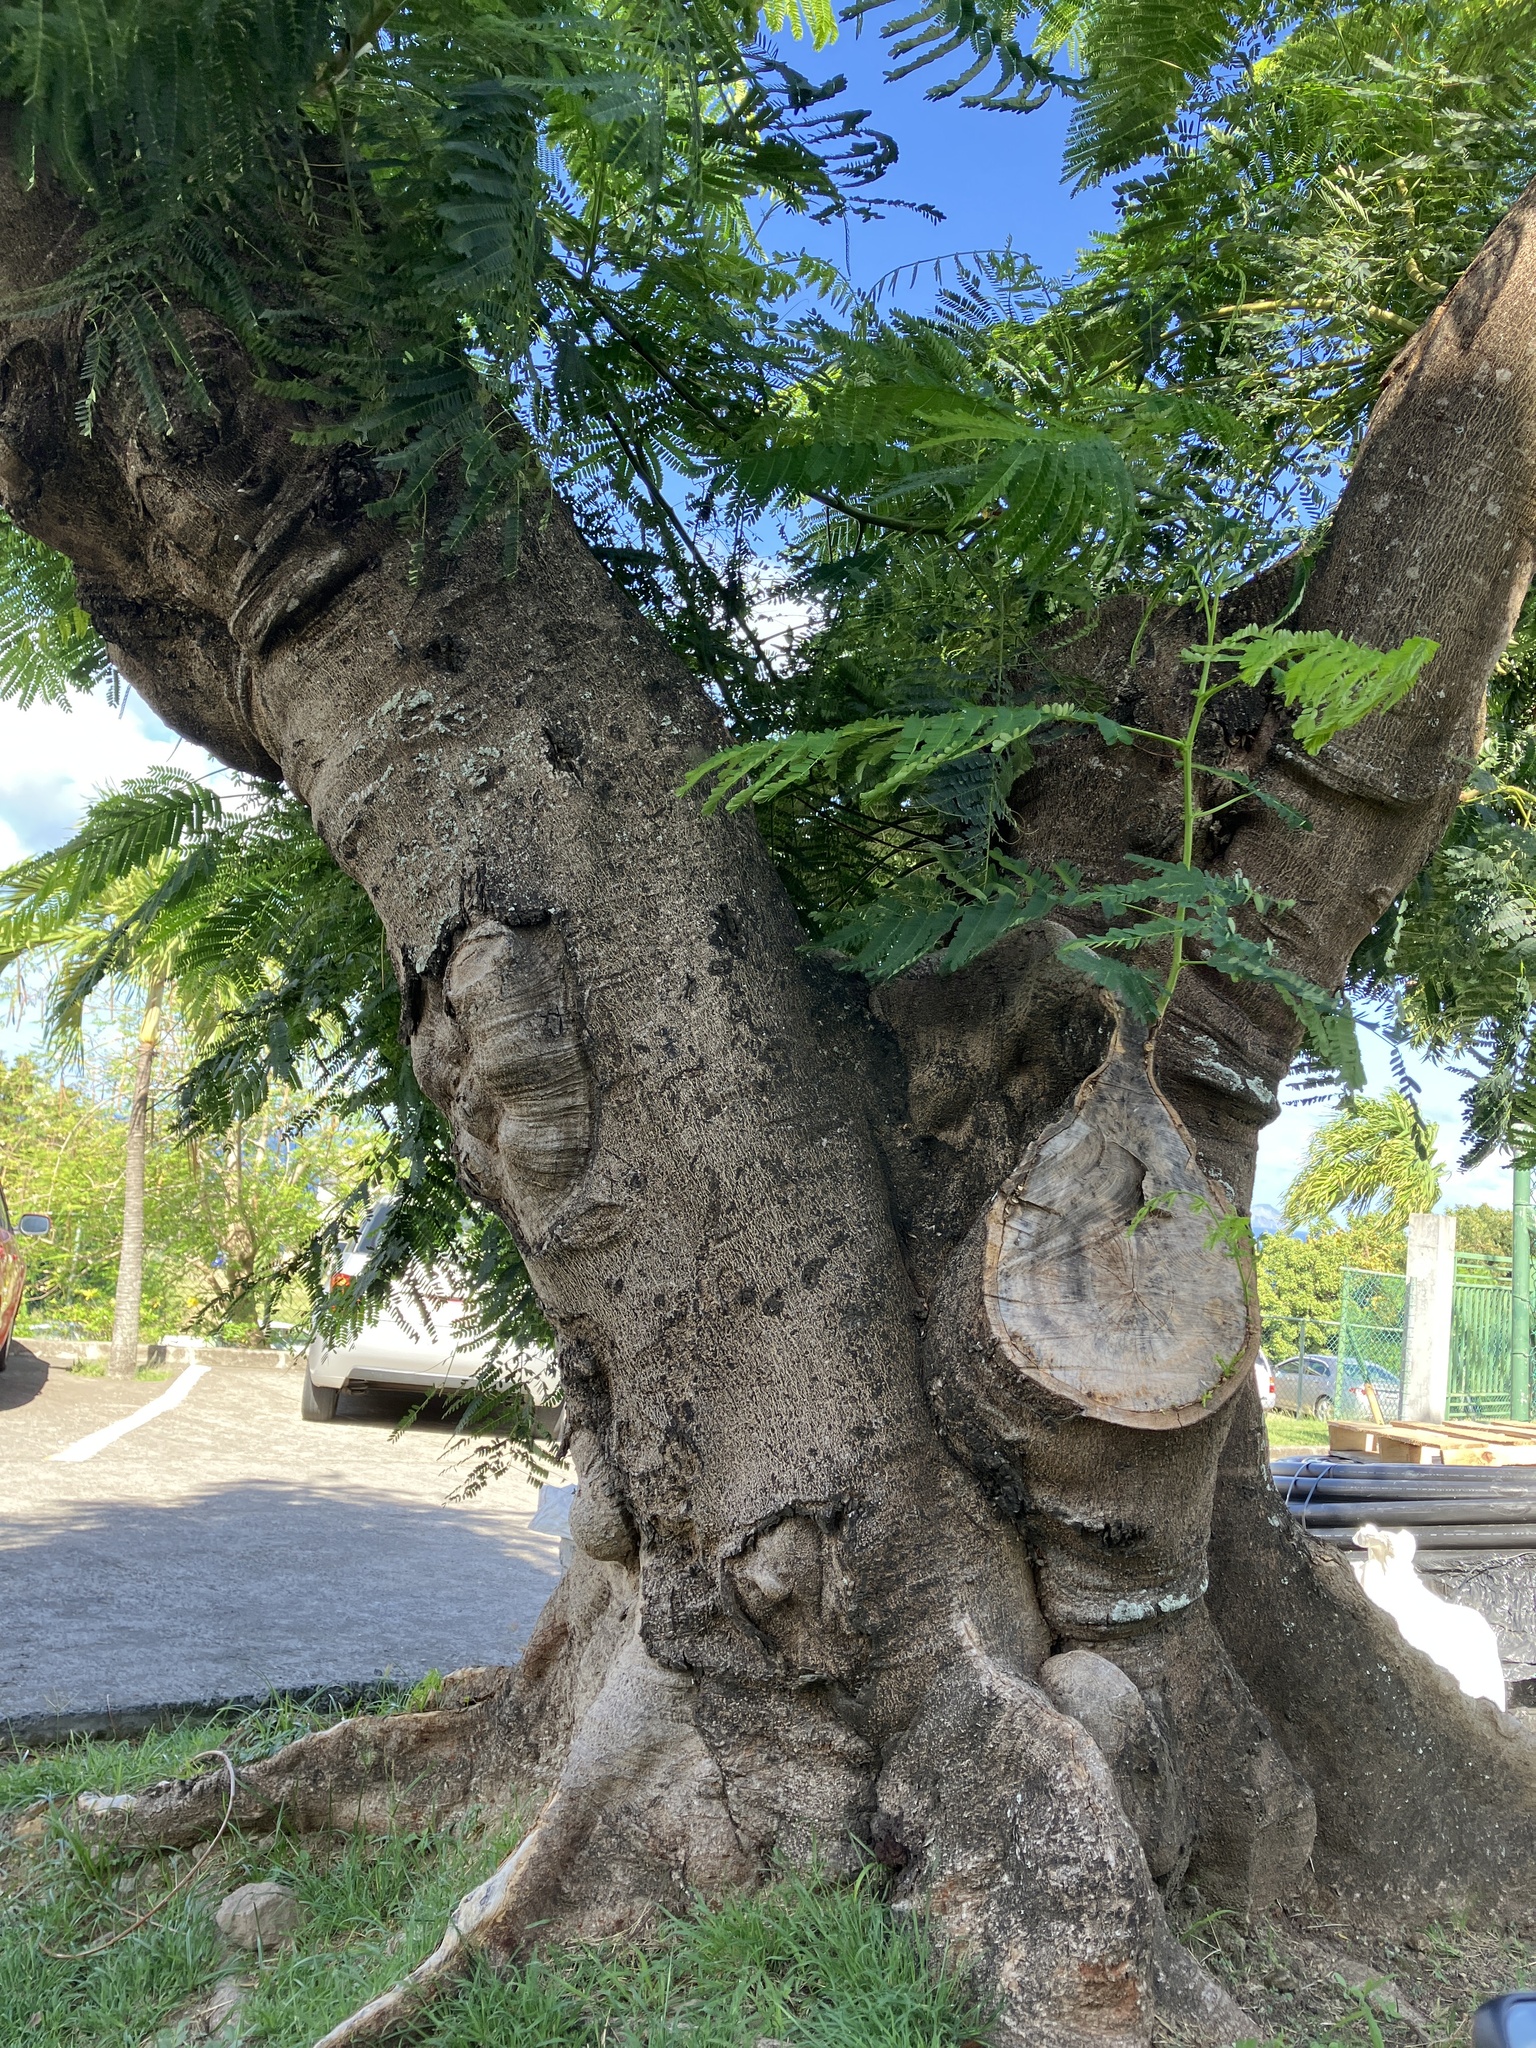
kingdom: Plantae
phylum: Tracheophyta
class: Magnoliopsida
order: Fabales
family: Fabaceae
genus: Delonix
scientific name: Delonix regia
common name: Royal poinciana
